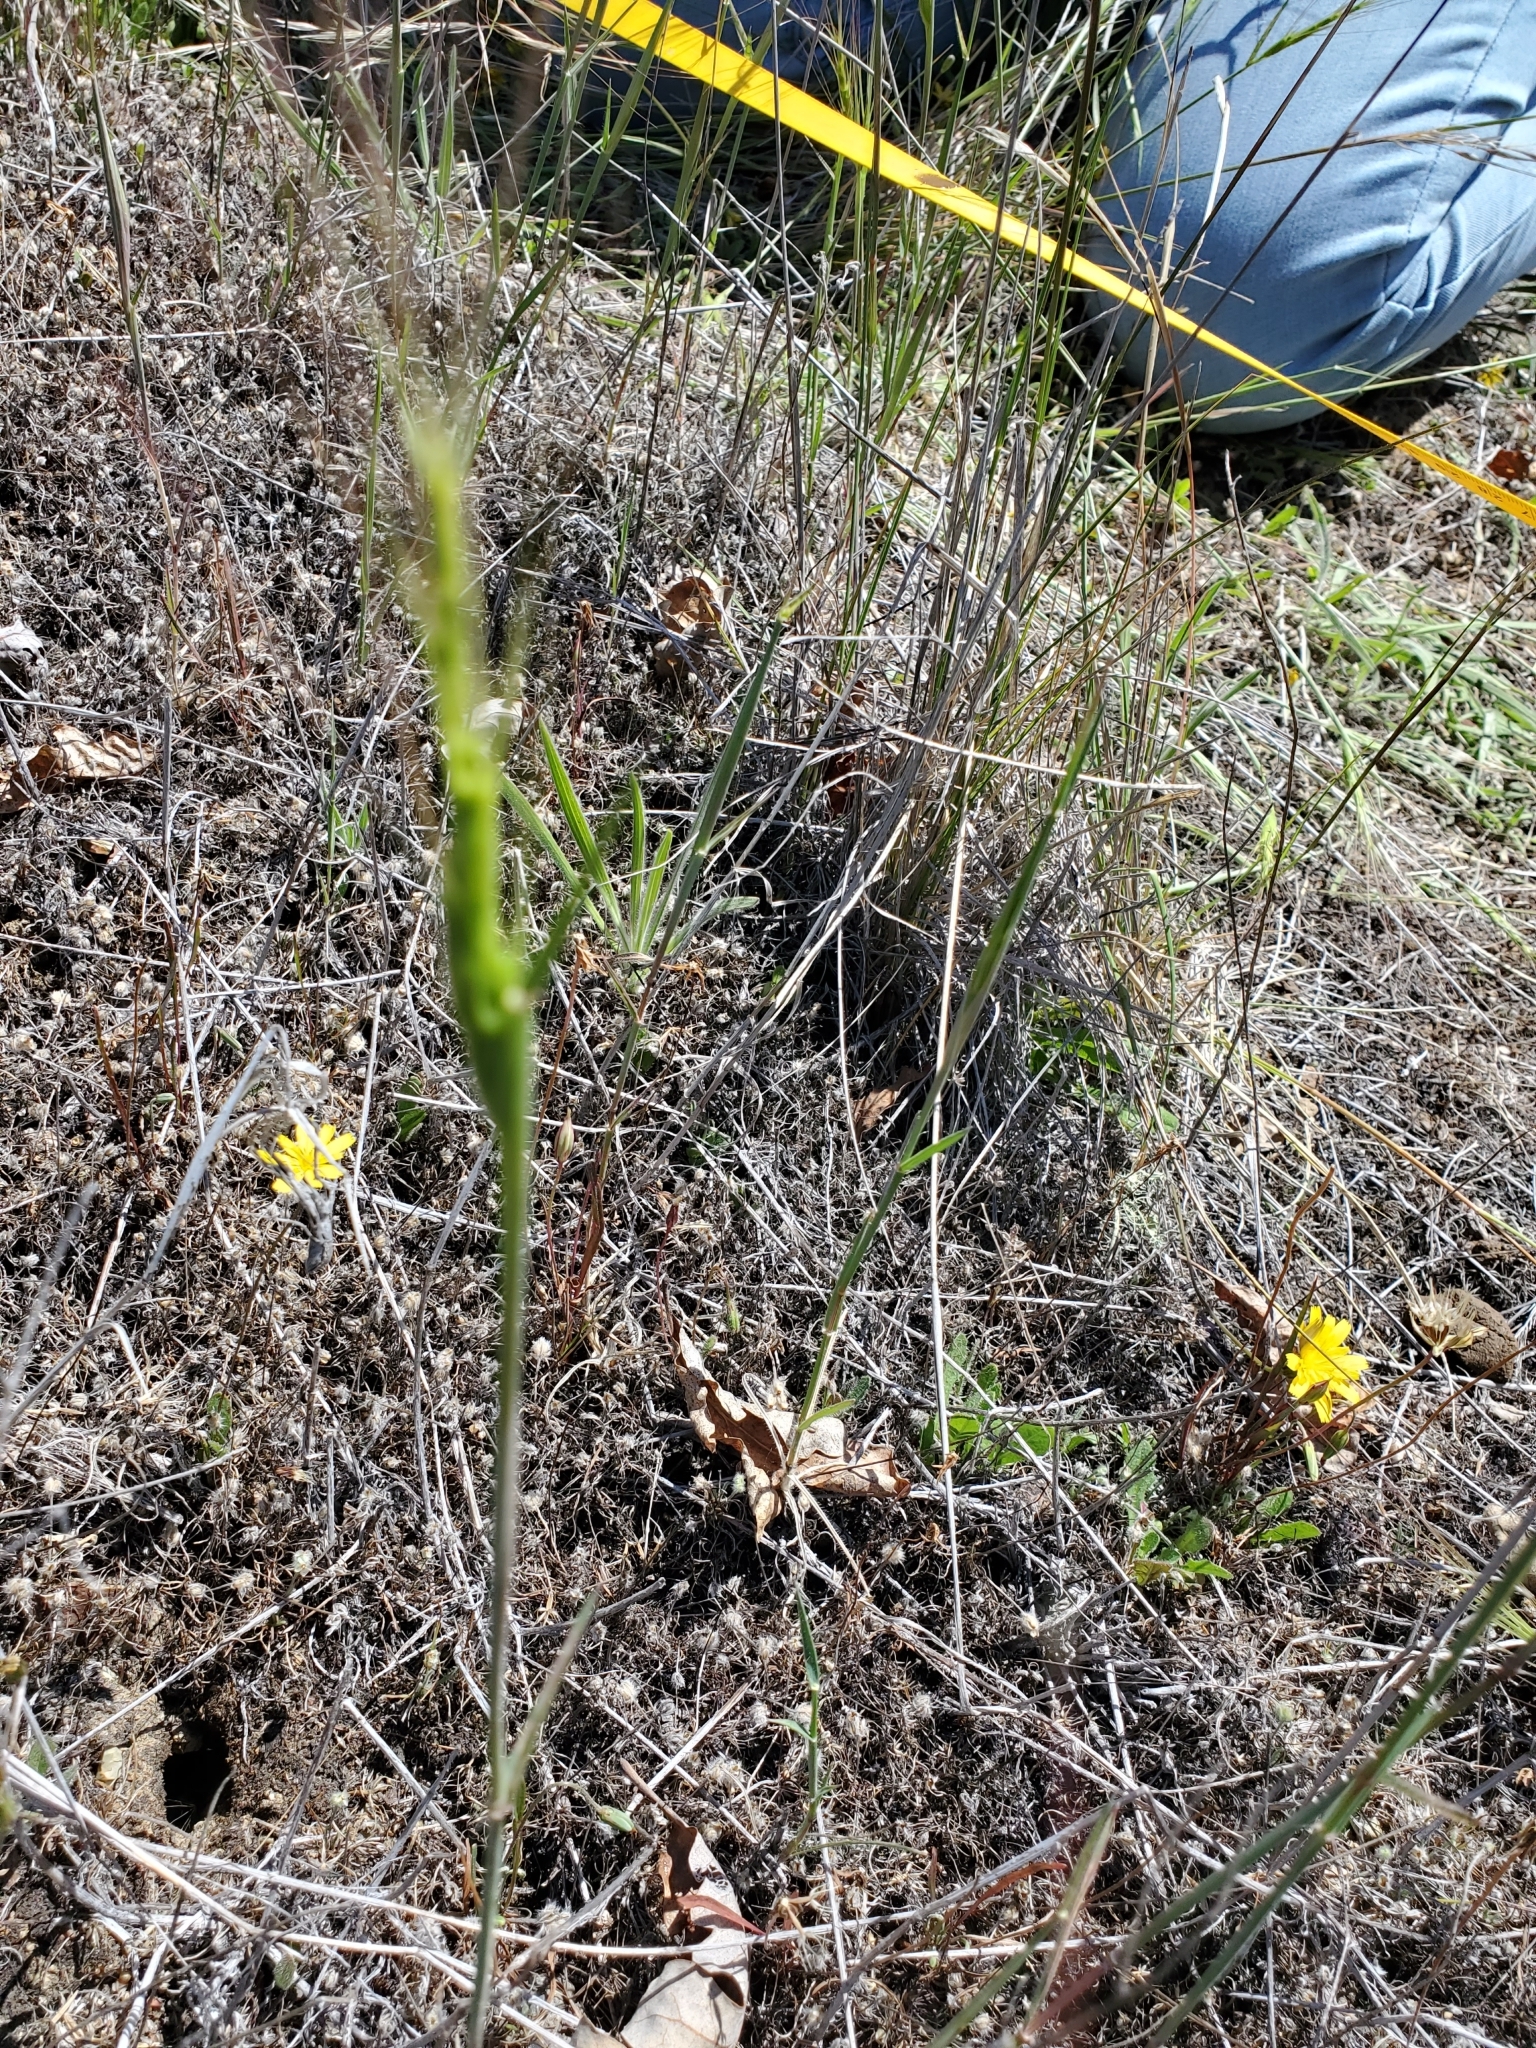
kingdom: Plantae
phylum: Tracheophyta
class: Liliopsida
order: Poales
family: Poaceae
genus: Aegilops
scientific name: Aegilops triuncialis
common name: Barb goat grass
